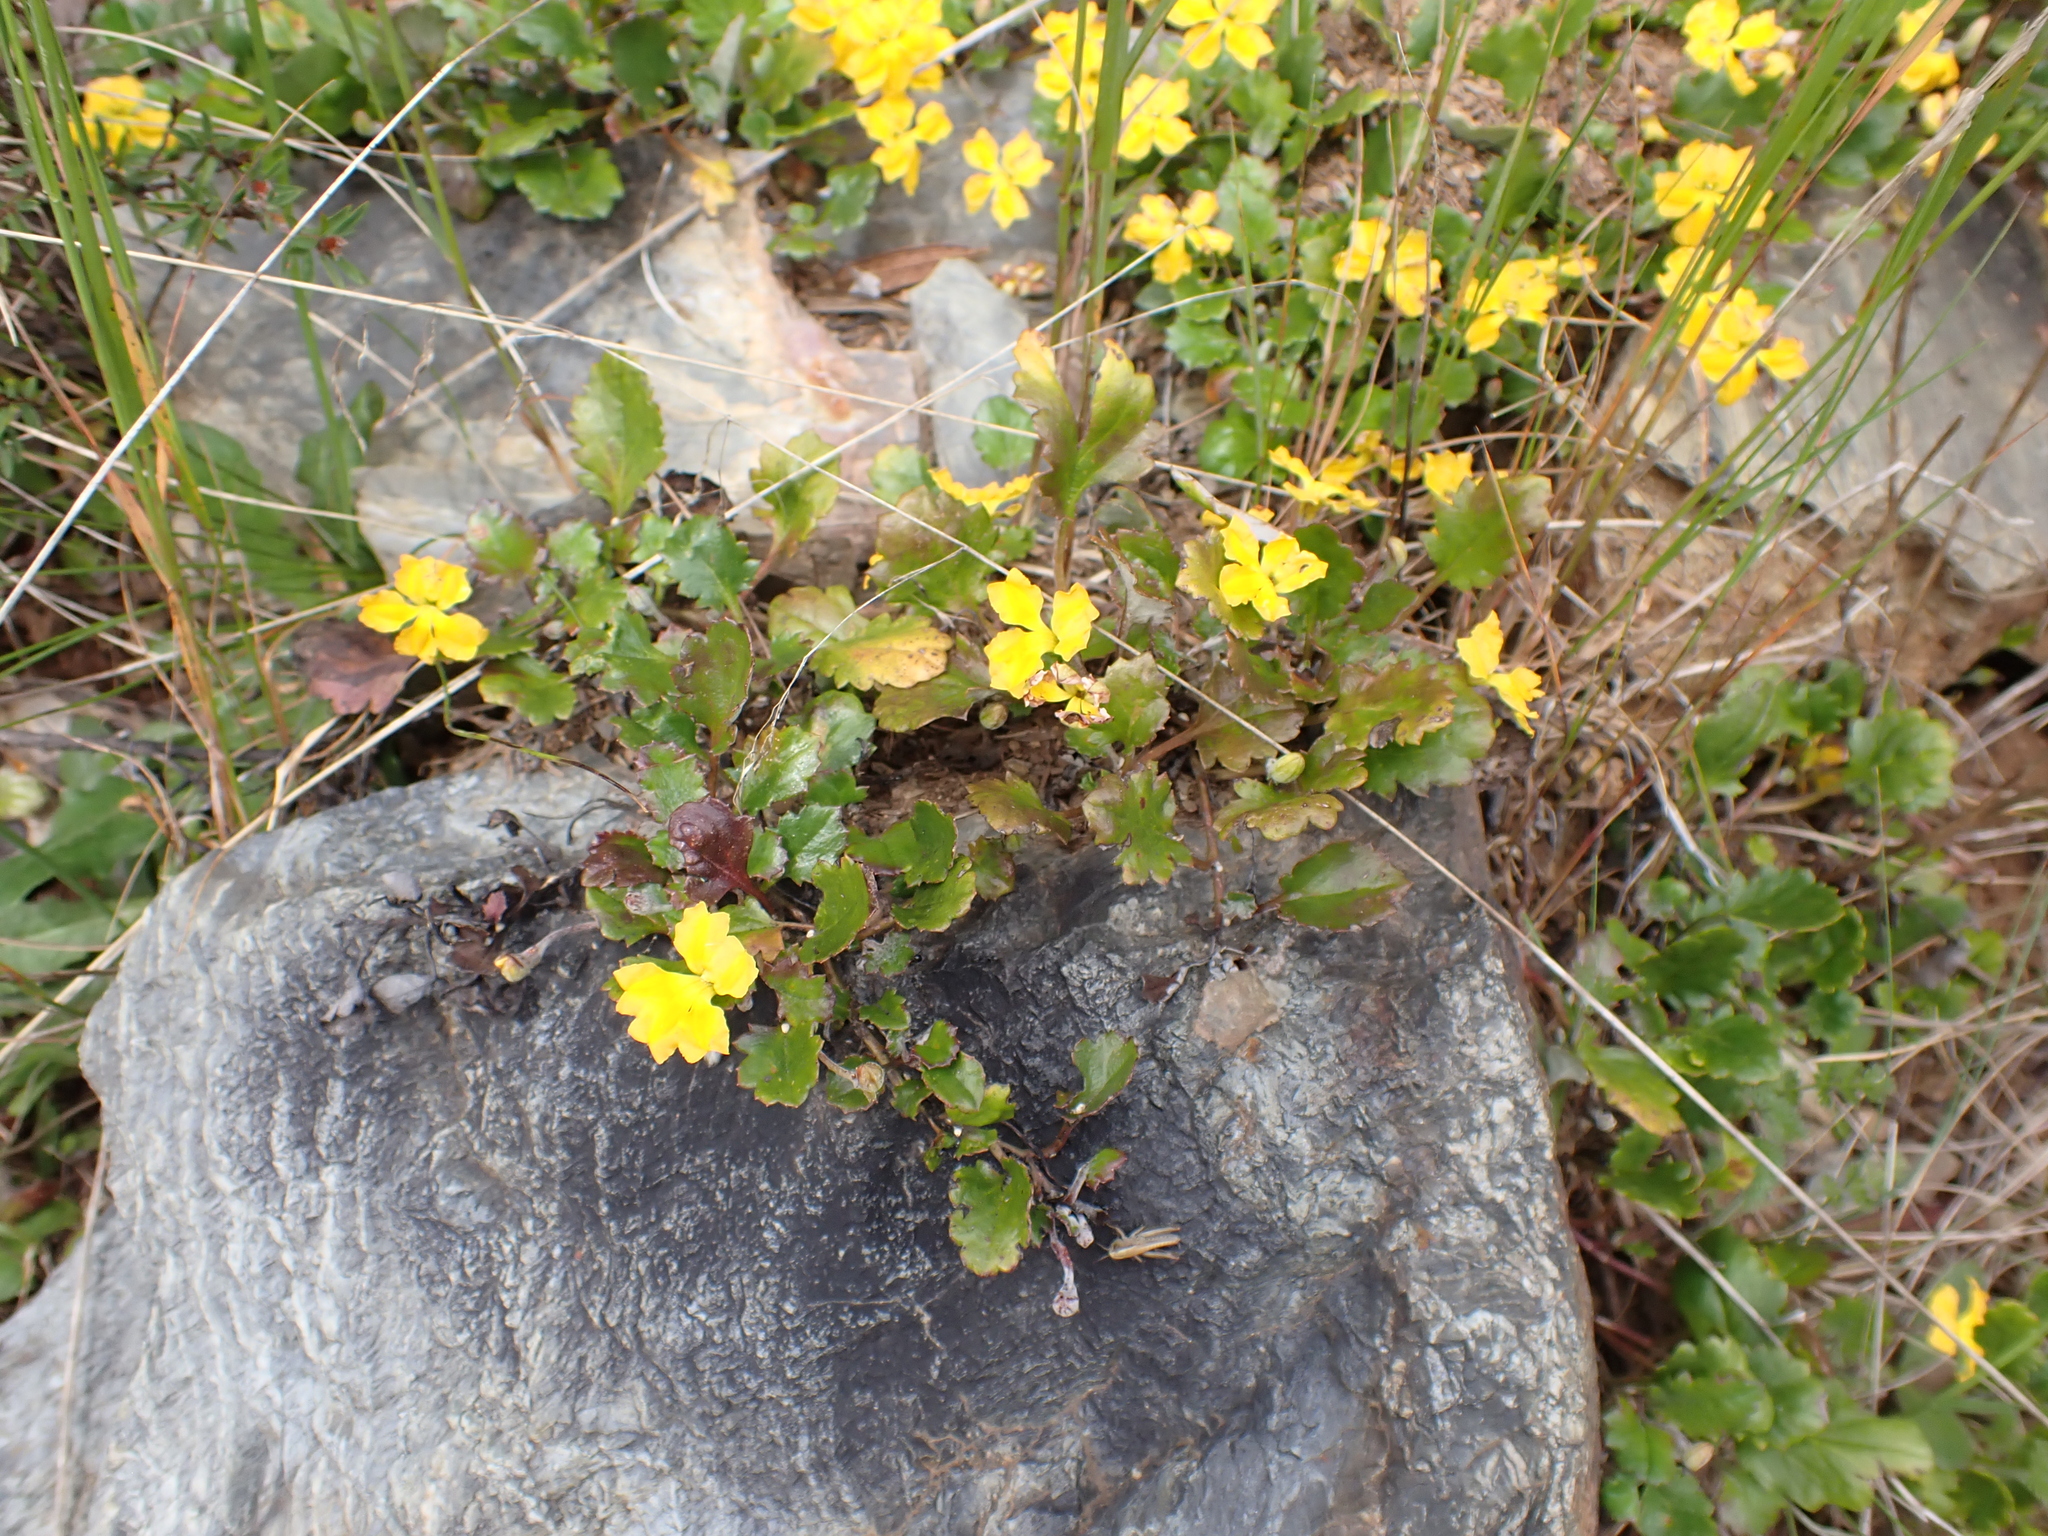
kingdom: Plantae
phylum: Tracheophyta
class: Magnoliopsida
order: Asterales
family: Goodeniaceae
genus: Goodenia
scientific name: Goodenia hederacea
